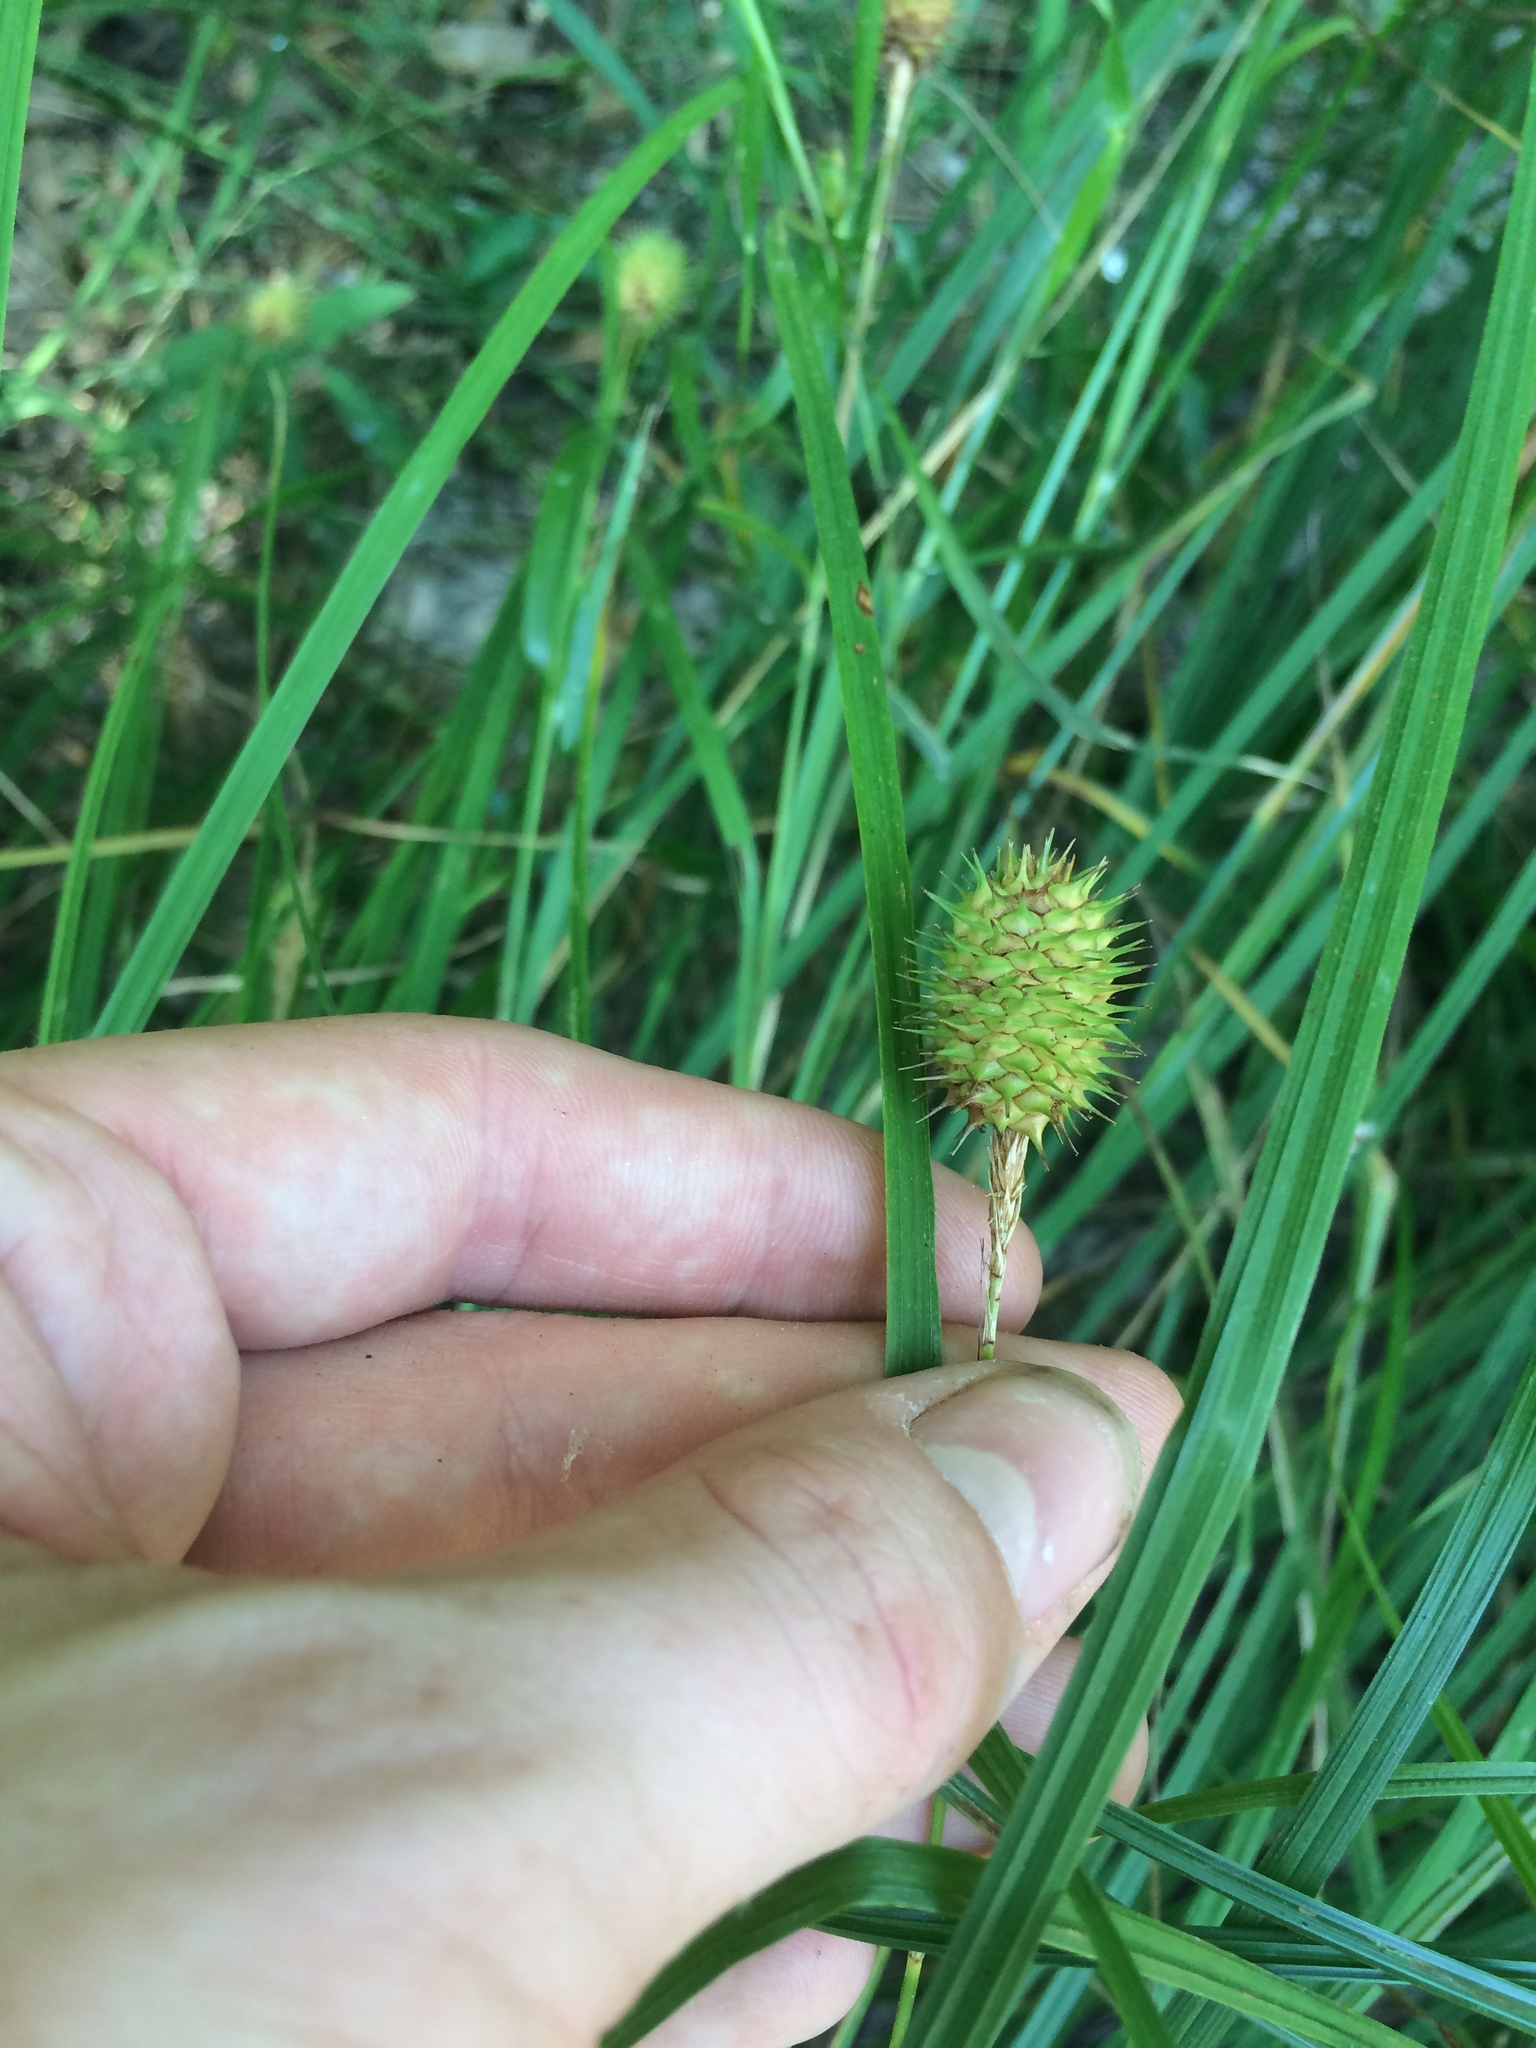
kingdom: Plantae
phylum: Tracheophyta
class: Liliopsida
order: Poales
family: Cyperaceae
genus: Carex
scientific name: Carex squarrosa
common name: Narrow-leaved cattail sedge
